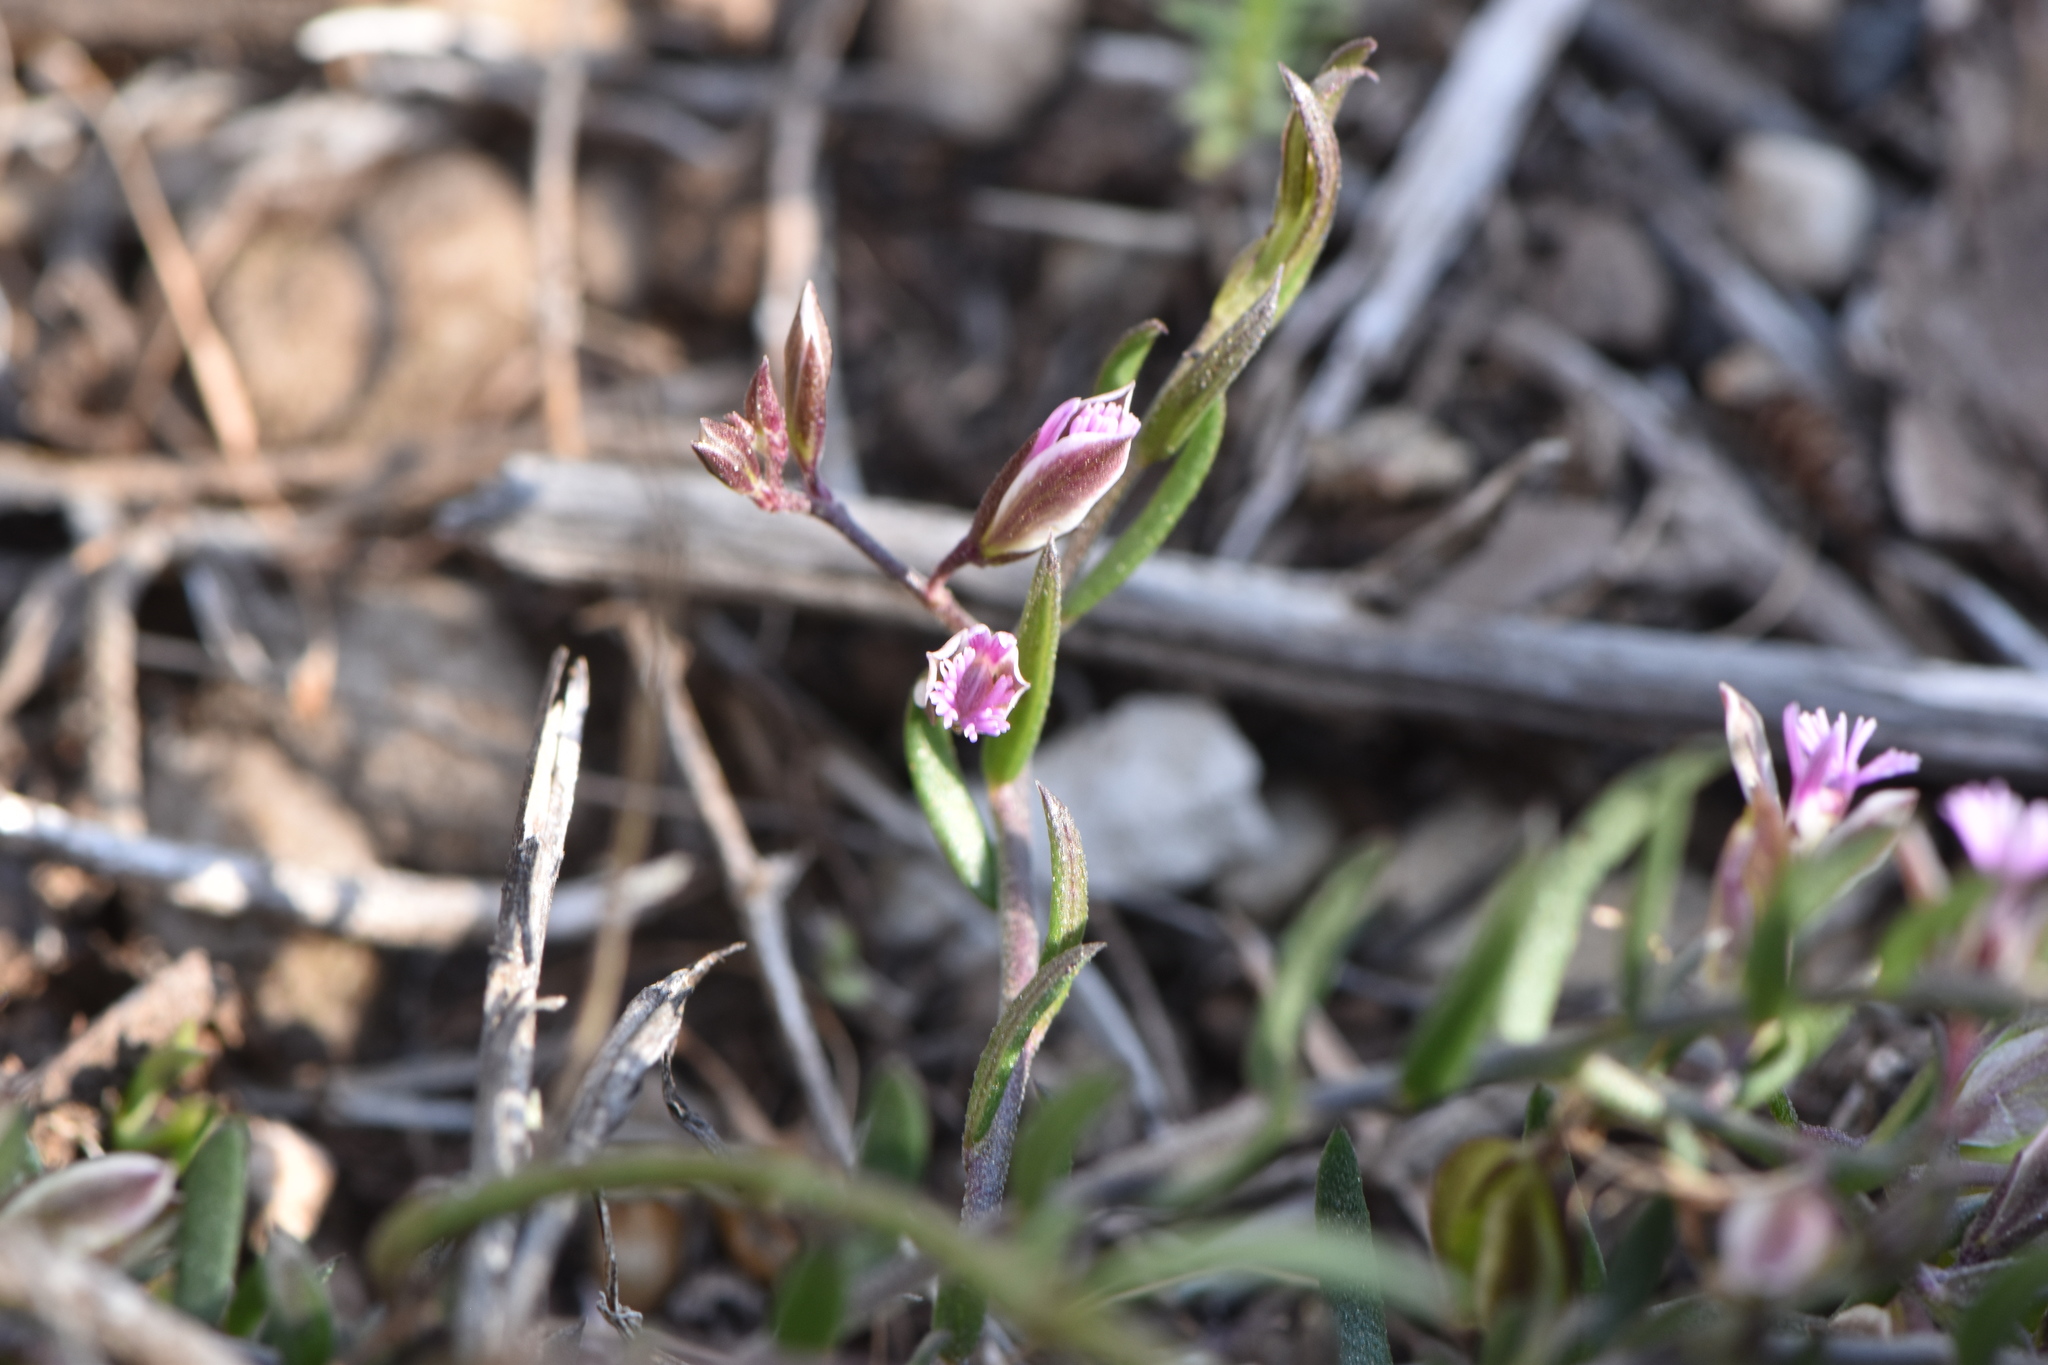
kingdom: Plantae
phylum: Tracheophyta
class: Magnoliopsida
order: Fabales
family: Polygalaceae
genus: Polygala
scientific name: Polygala rupestris
